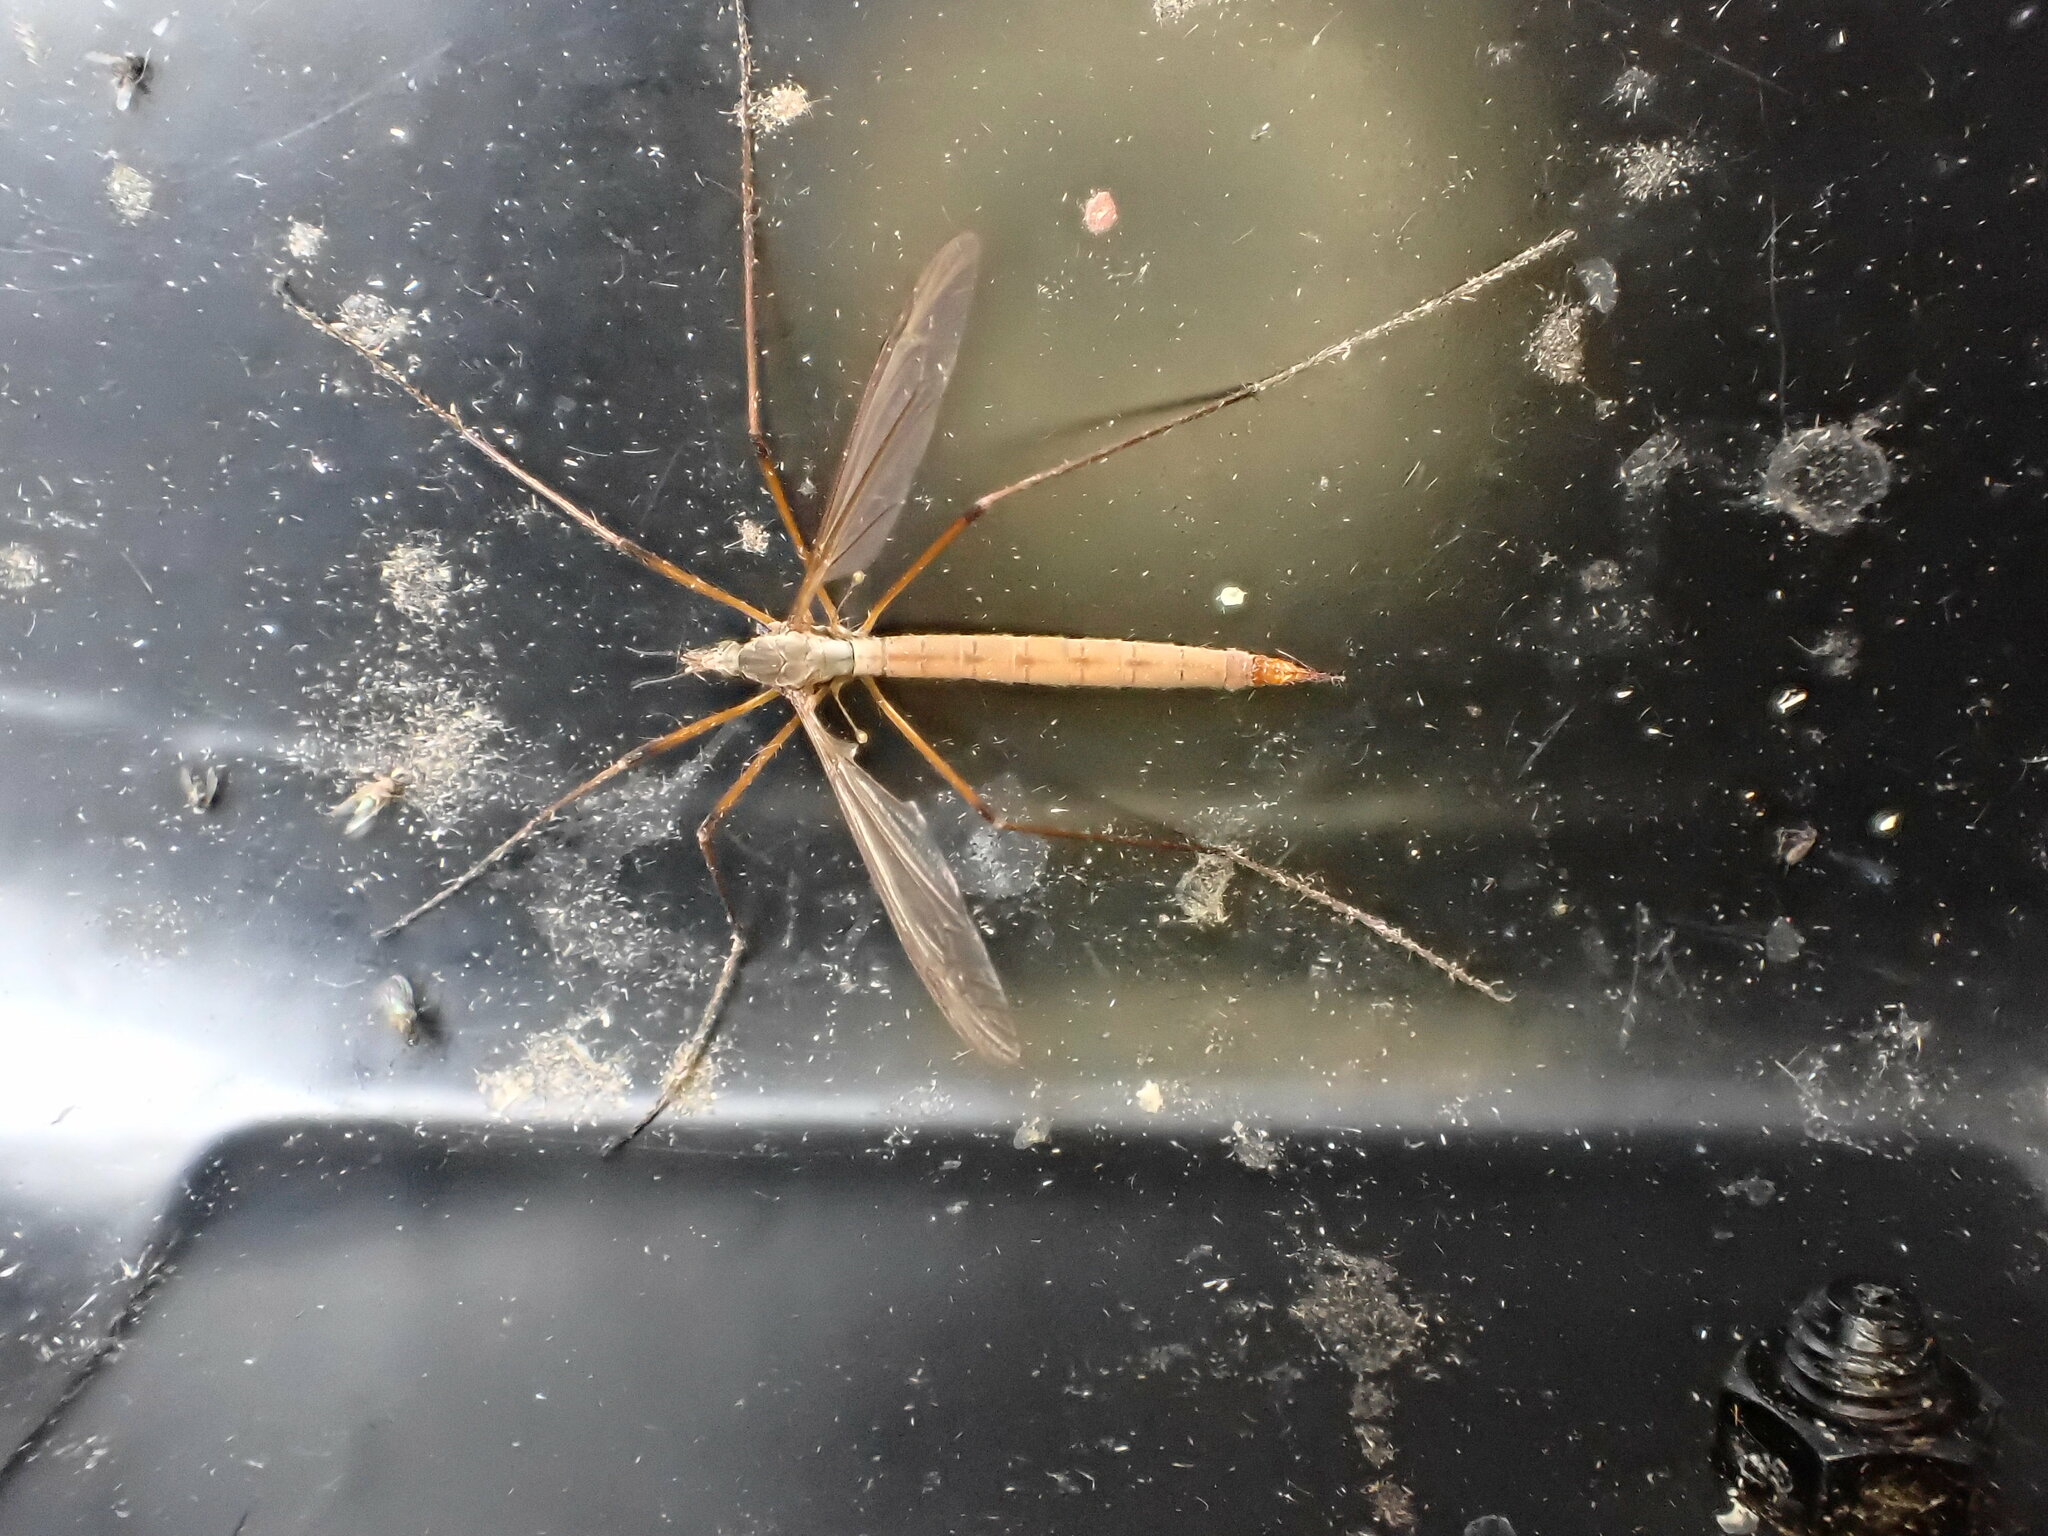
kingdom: Animalia
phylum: Arthropoda
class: Insecta
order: Diptera
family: Tipulidae
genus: Tipula
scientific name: Tipula paludosa
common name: European cranefly
